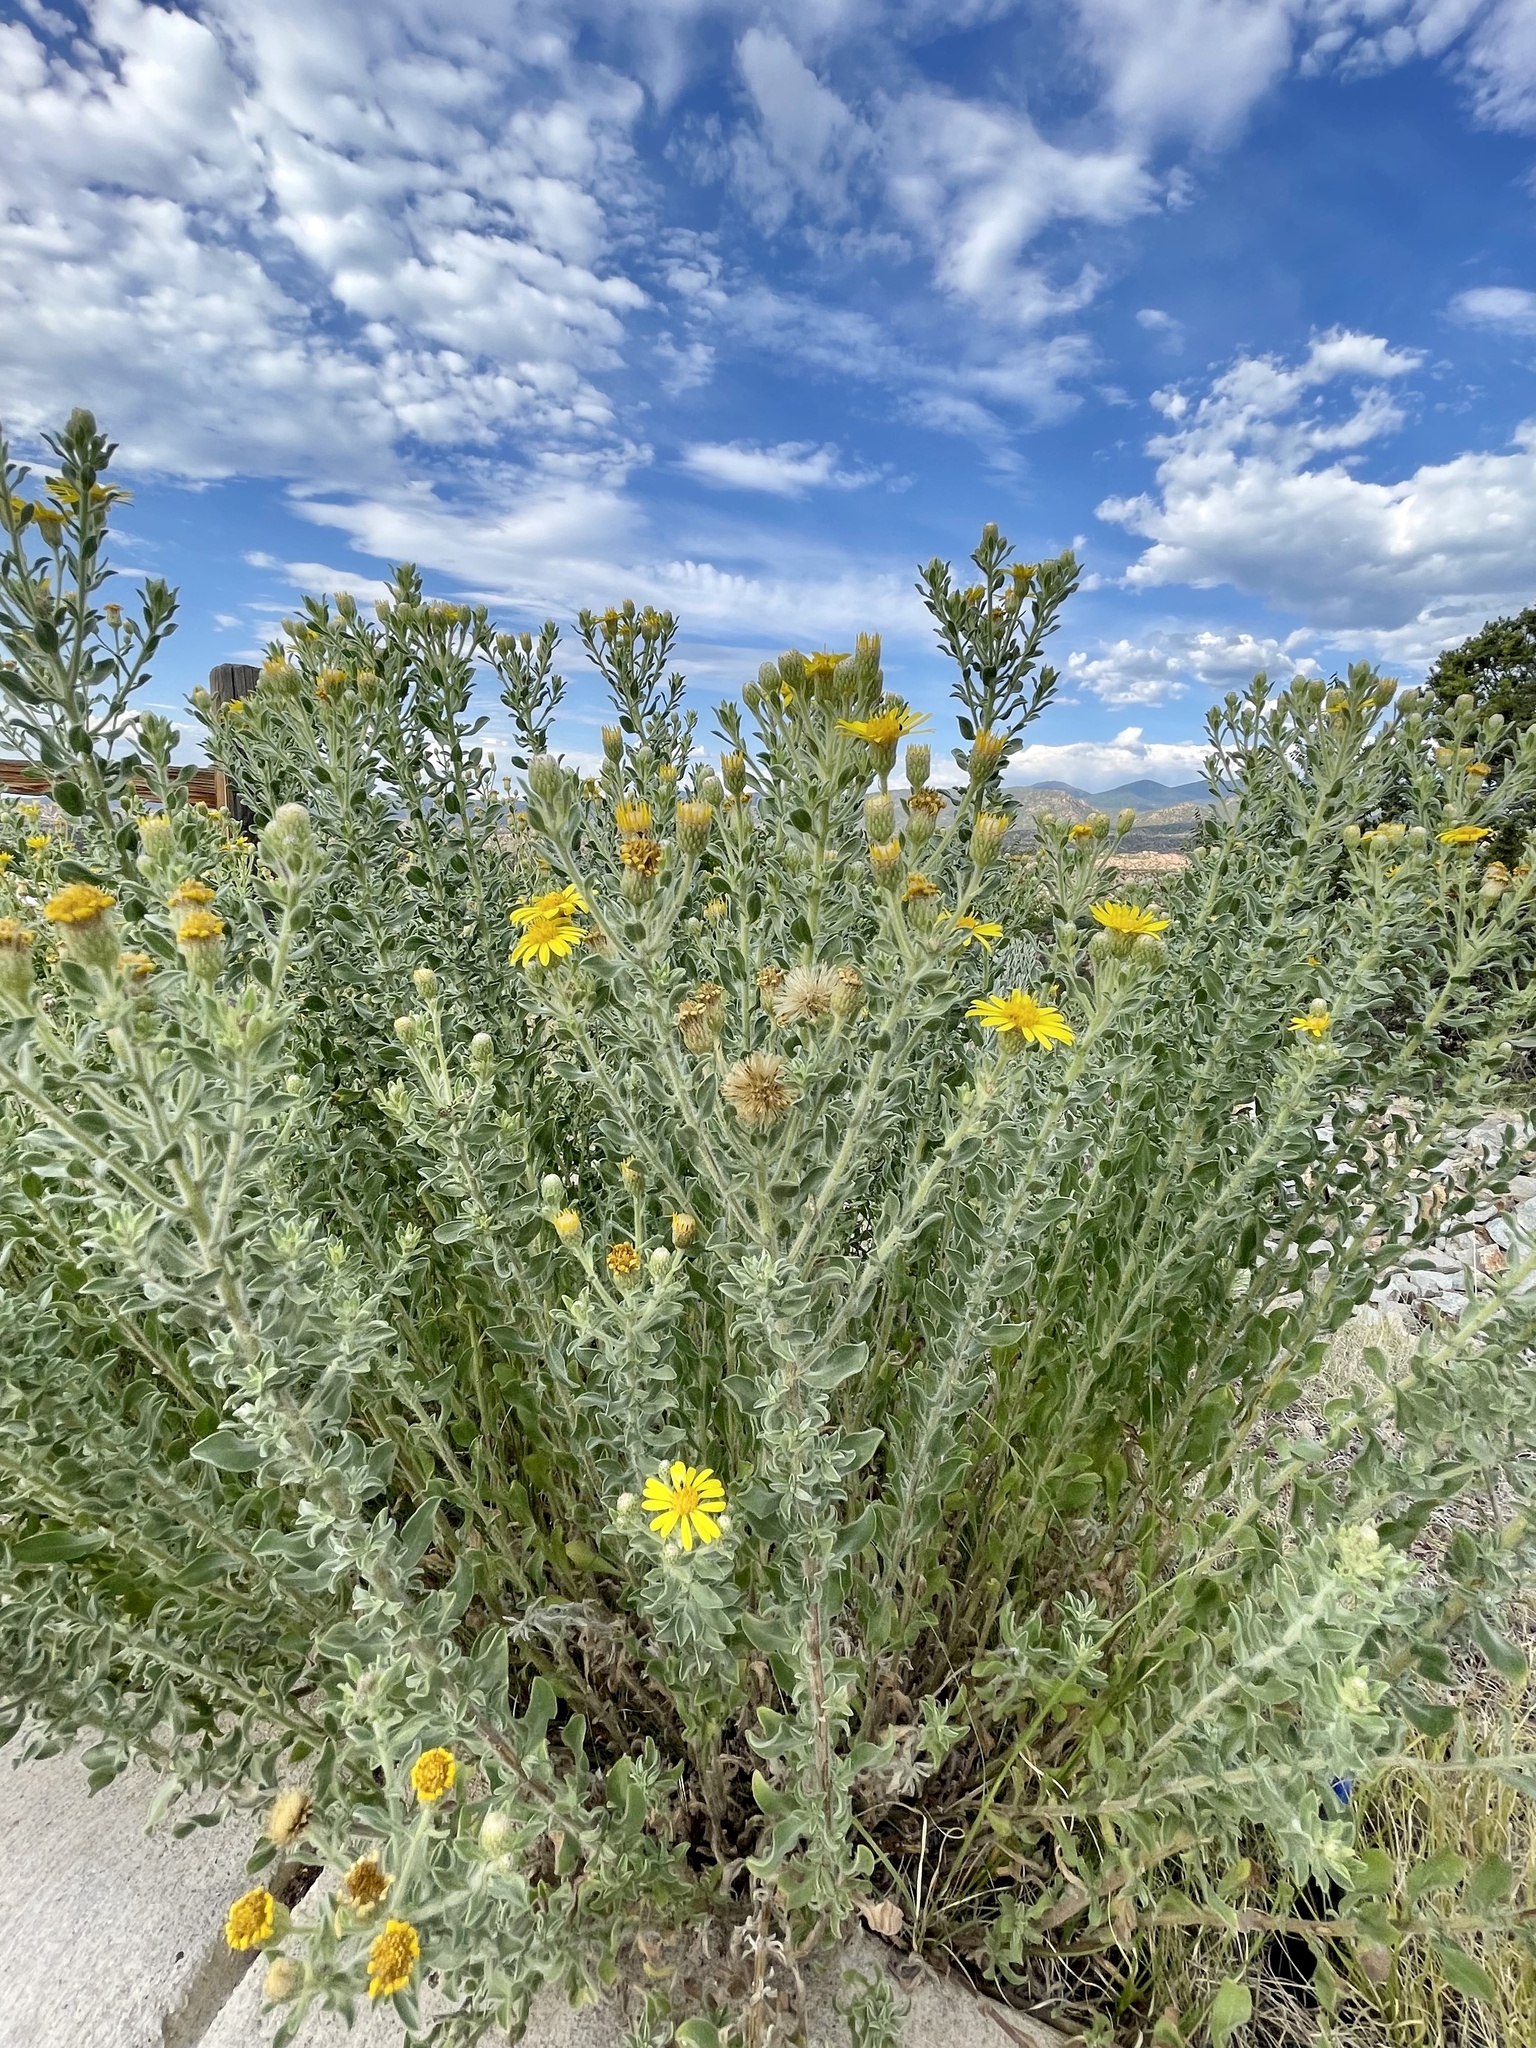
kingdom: Plantae
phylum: Tracheophyta
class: Magnoliopsida
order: Asterales
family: Asteraceae
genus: Heterotheca
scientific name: Heterotheca zionensis
